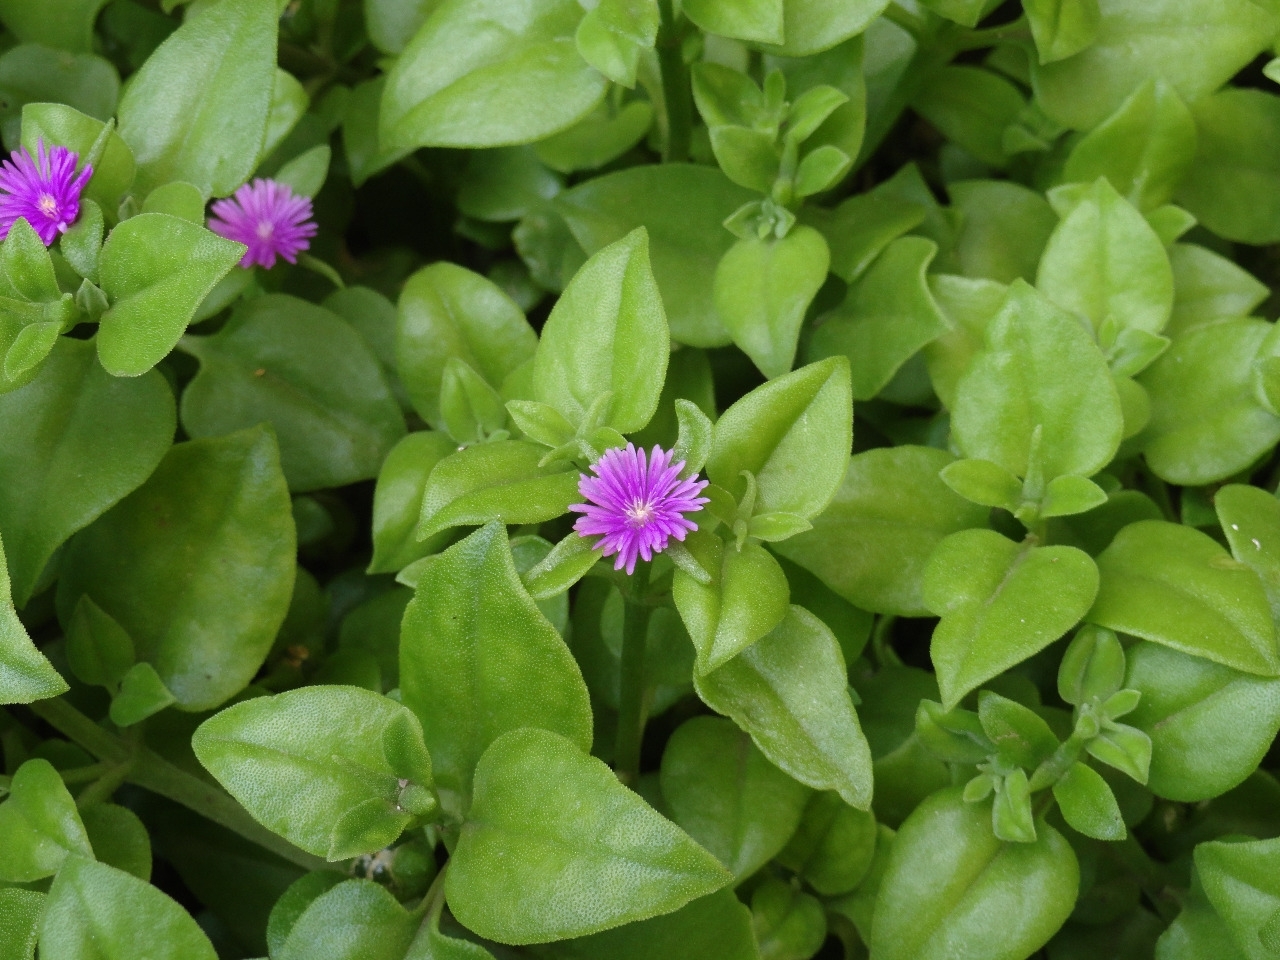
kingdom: Plantae
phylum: Tracheophyta
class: Magnoliopsida
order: Caryophyllales
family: Aizoaceae
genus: Mesembryanthemum
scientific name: Mesembryanthemum cordifolium
